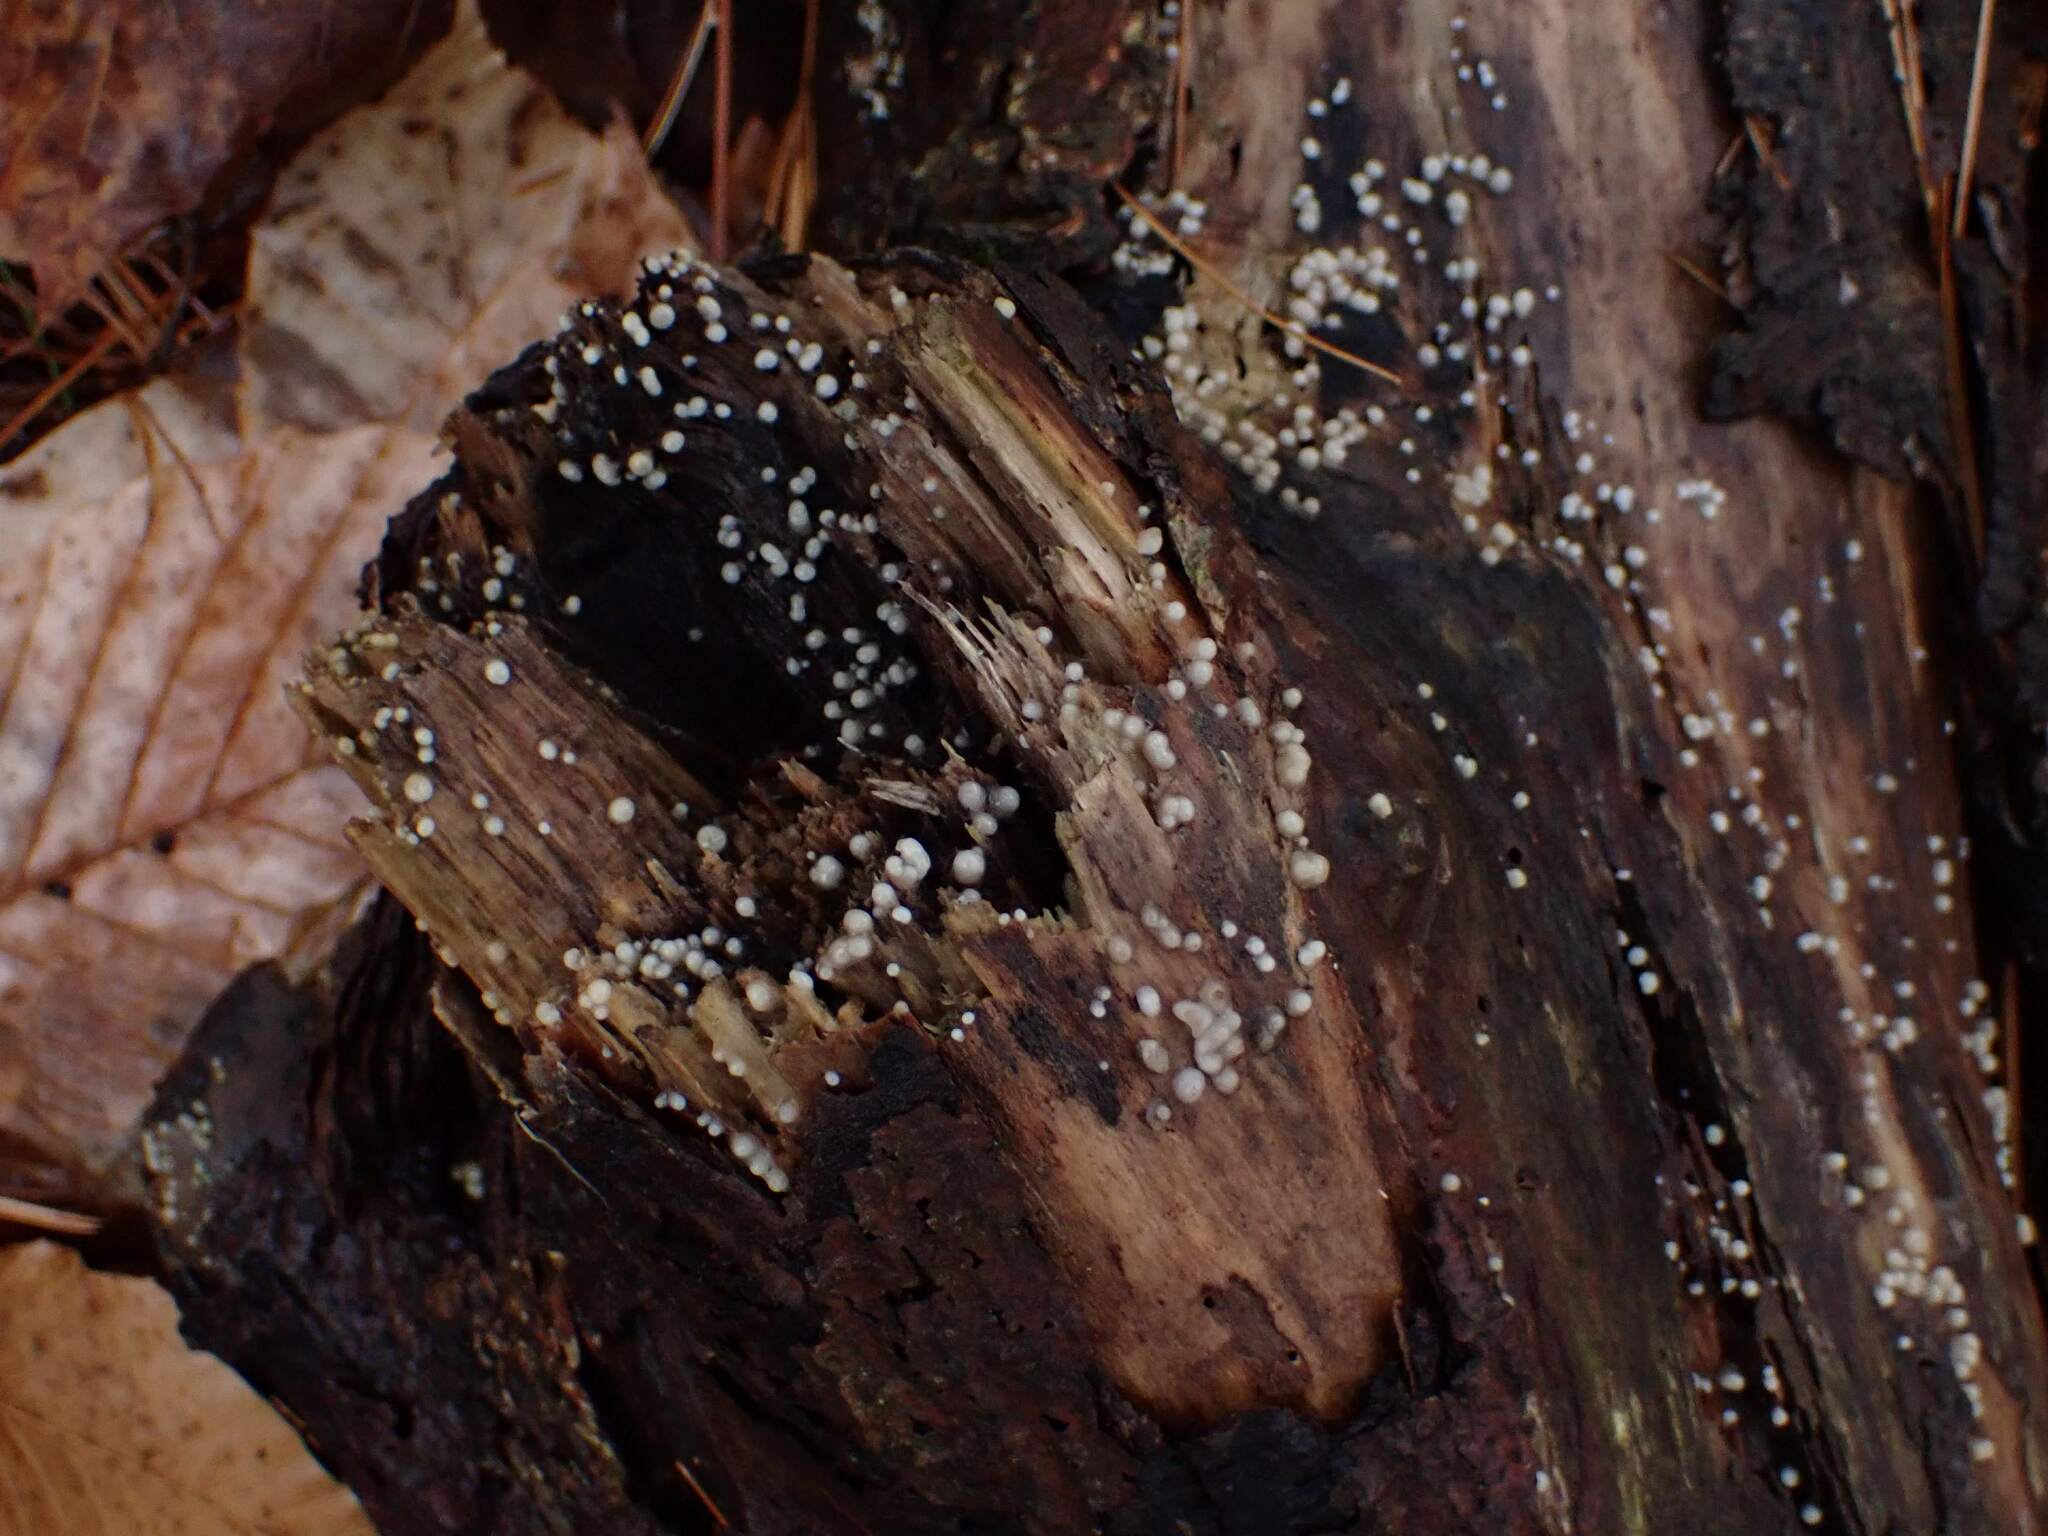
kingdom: Fungi
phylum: Basidiomycota
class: Atractiellomycetes
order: Atractiellales
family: Phleogenaceae
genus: Helicogloea
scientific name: Helicogloea compressa
